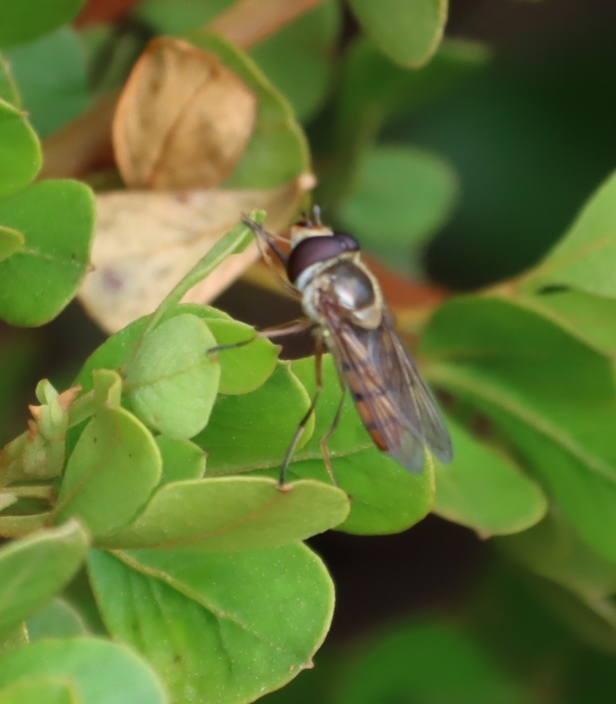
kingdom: Animalia
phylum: Arthropoda
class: Insecta
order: Diptera
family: Syrphidae
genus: Eupeodes
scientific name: Eupeodes corollae
